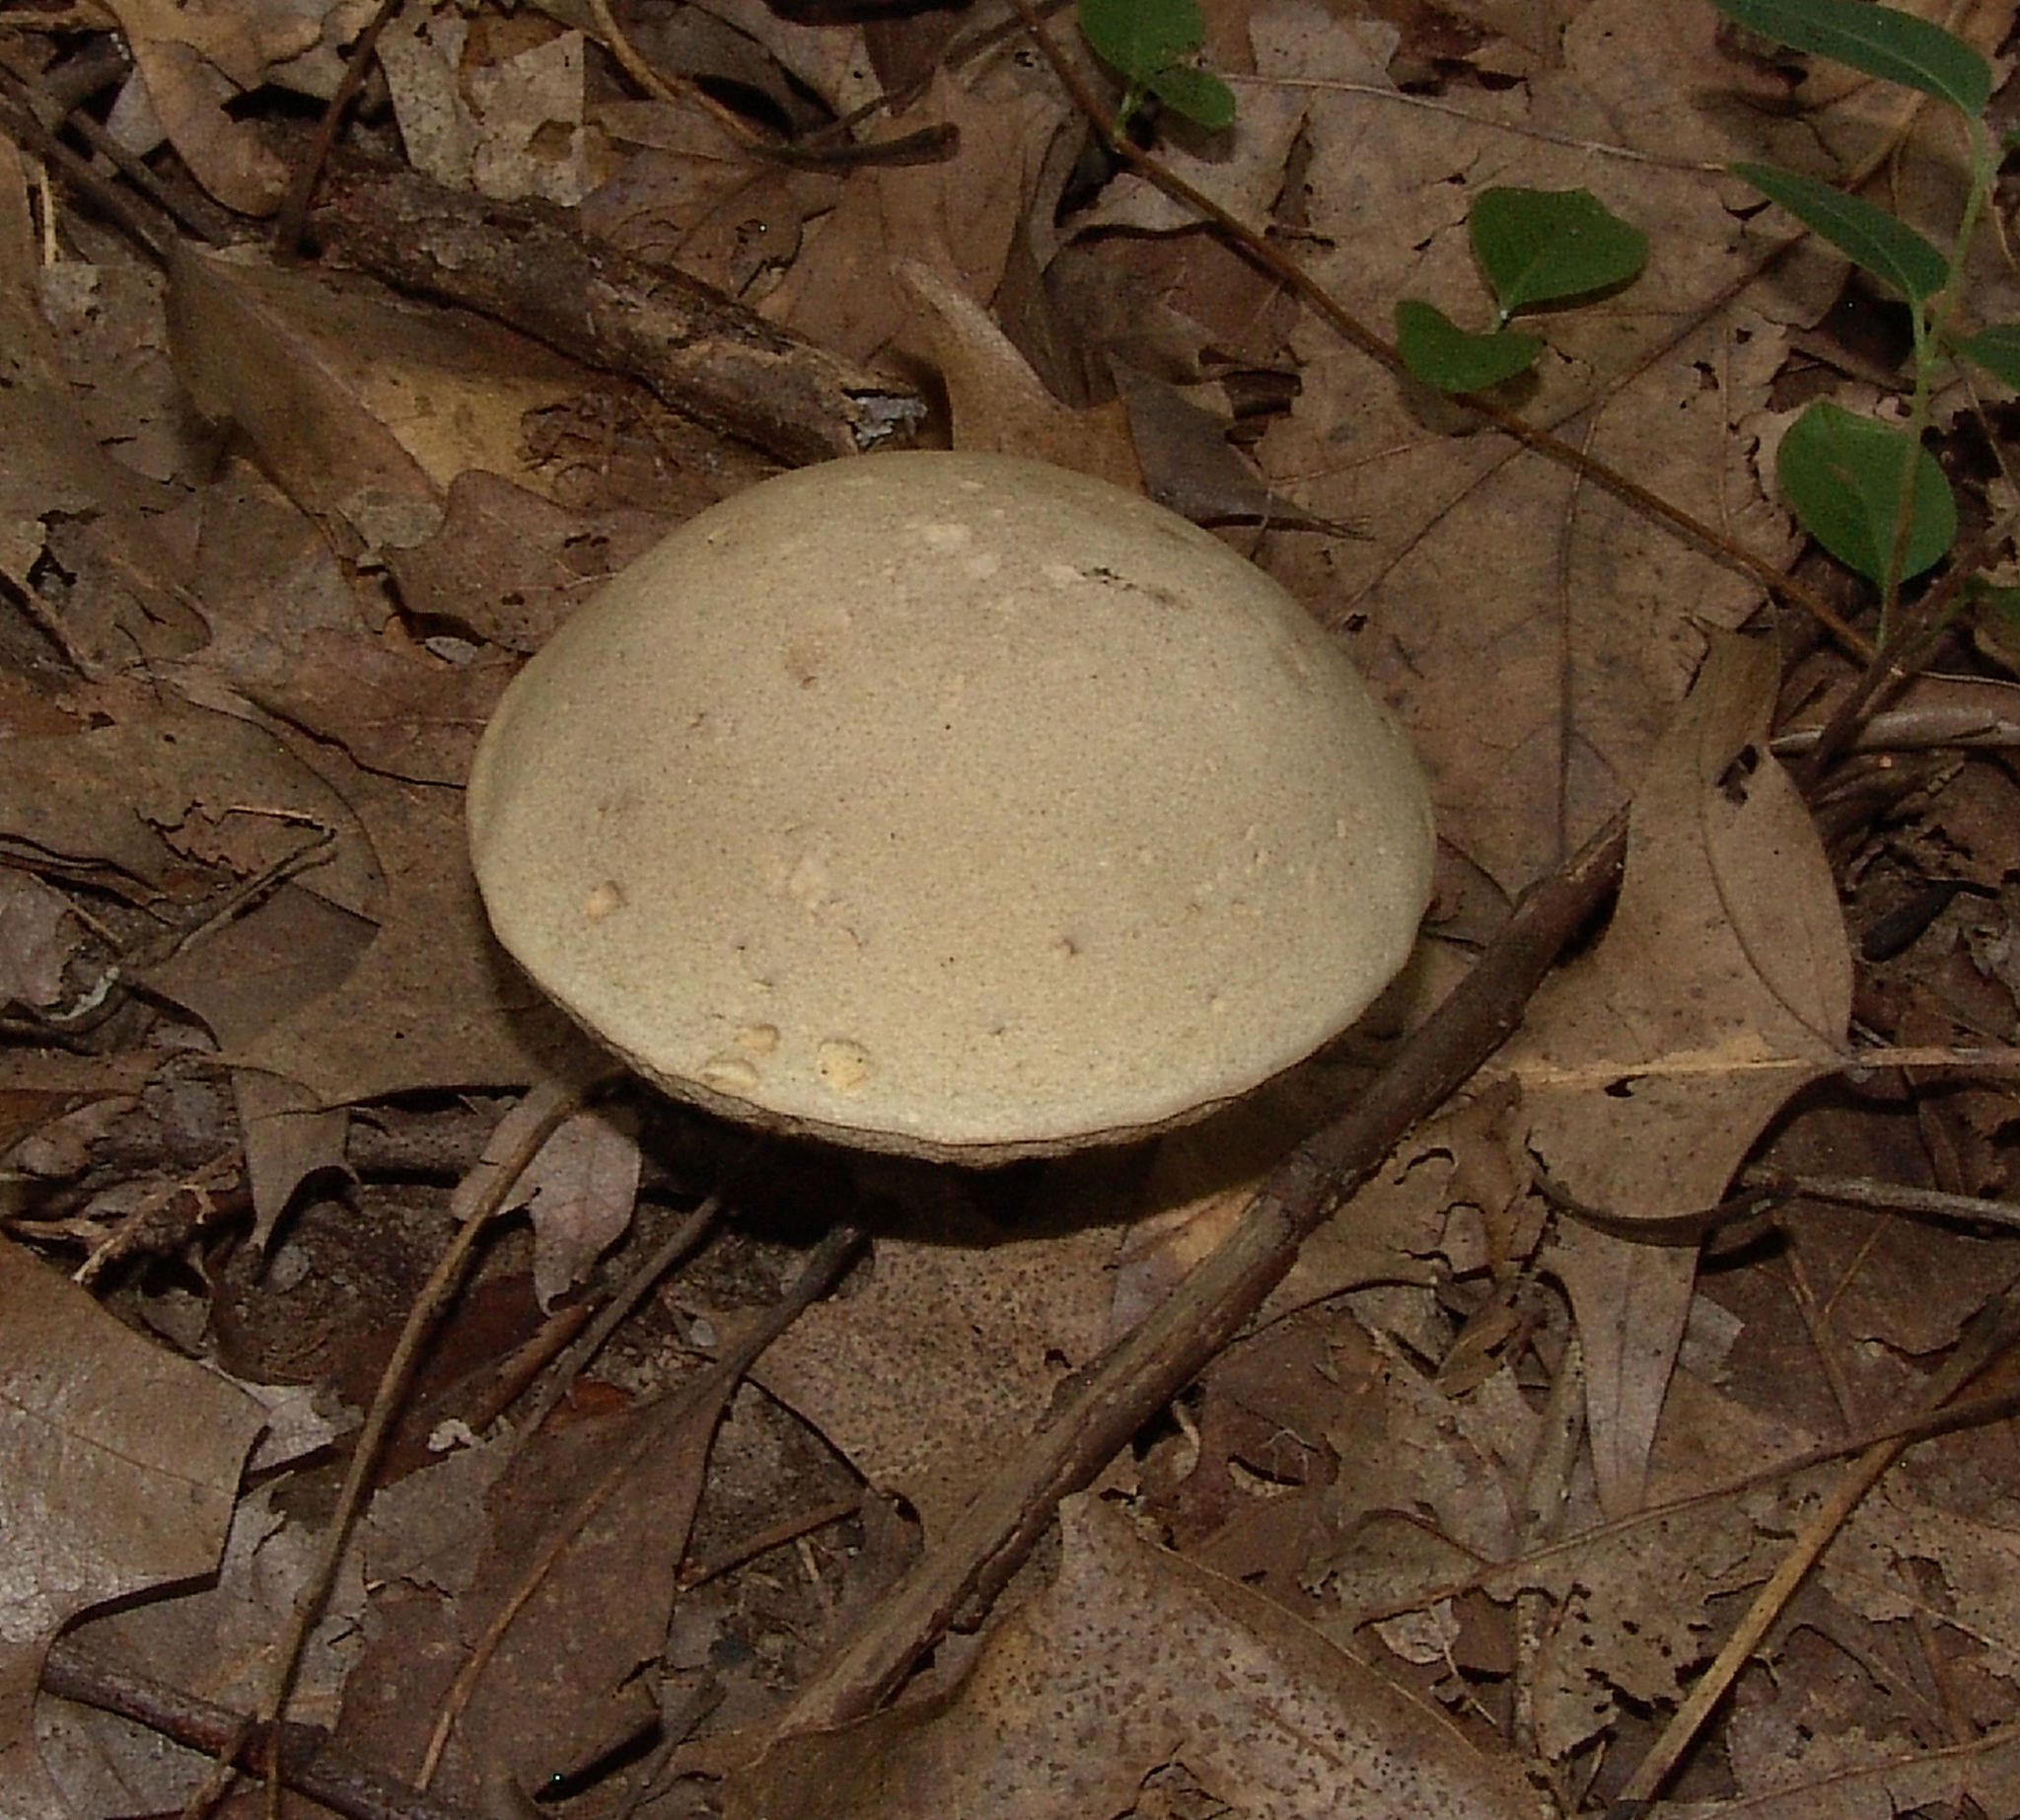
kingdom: Fungi
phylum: Basidiomycota
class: Agaricomycetes
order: Boletales
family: Boletaceae
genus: Retiboletus
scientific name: Retiboletus griseus
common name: Grey bolete
